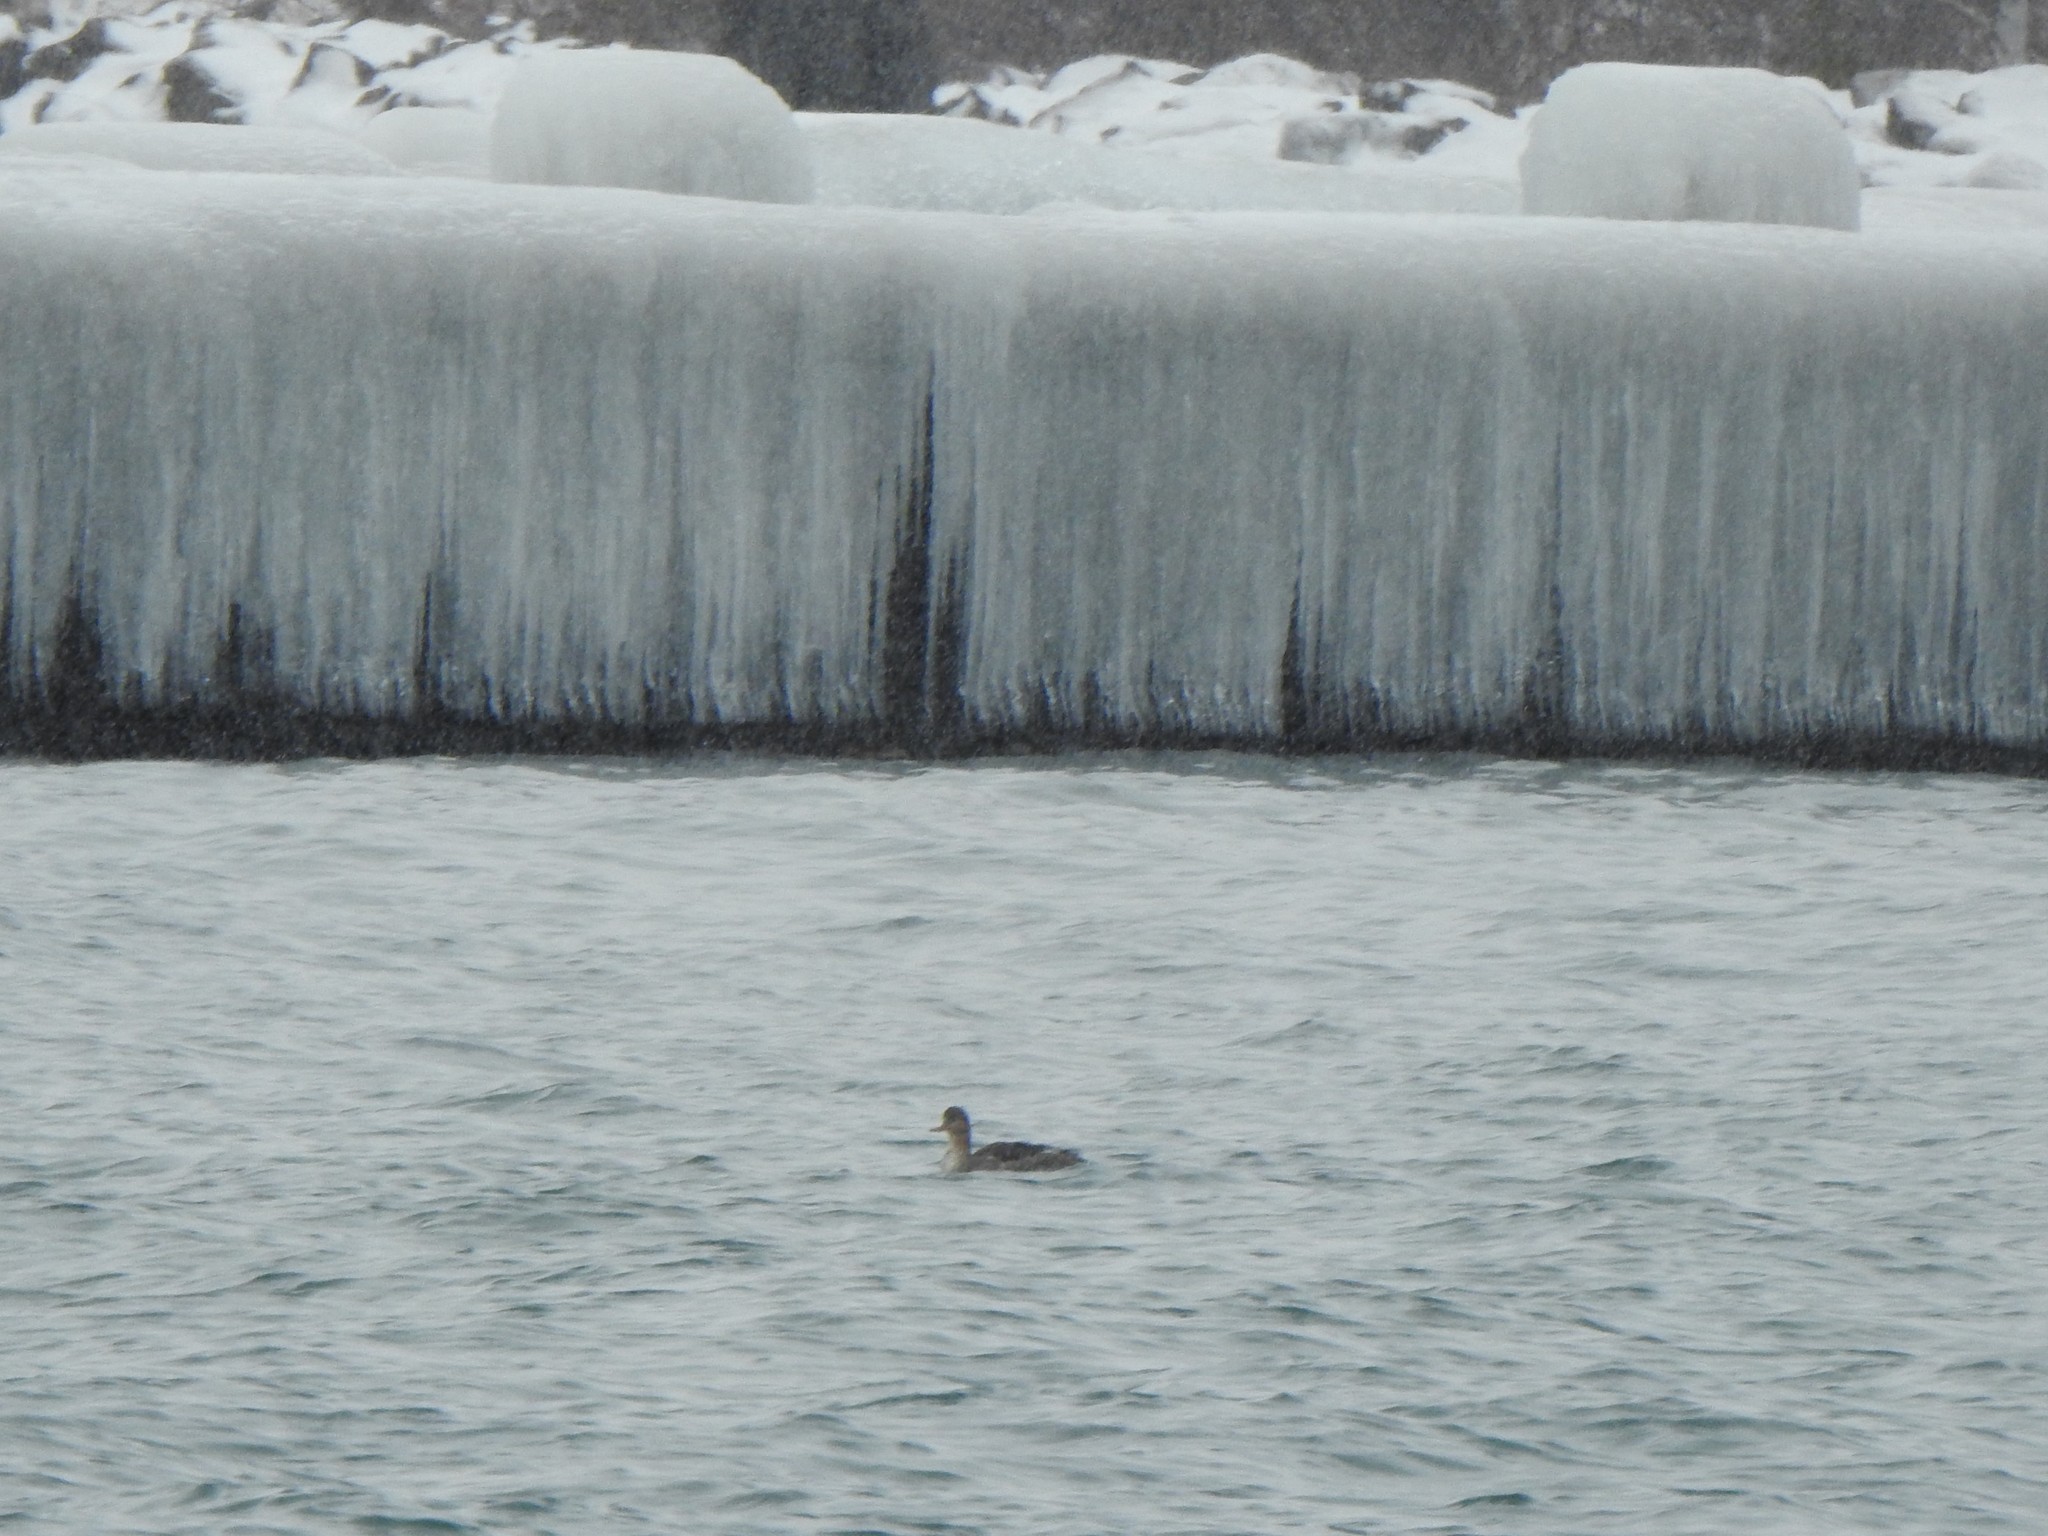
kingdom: Animalia
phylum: Chordata
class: Aves
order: Anseriformes
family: Anatidae
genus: Mergus
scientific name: Mergus serrator
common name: Red-breasted merganser
